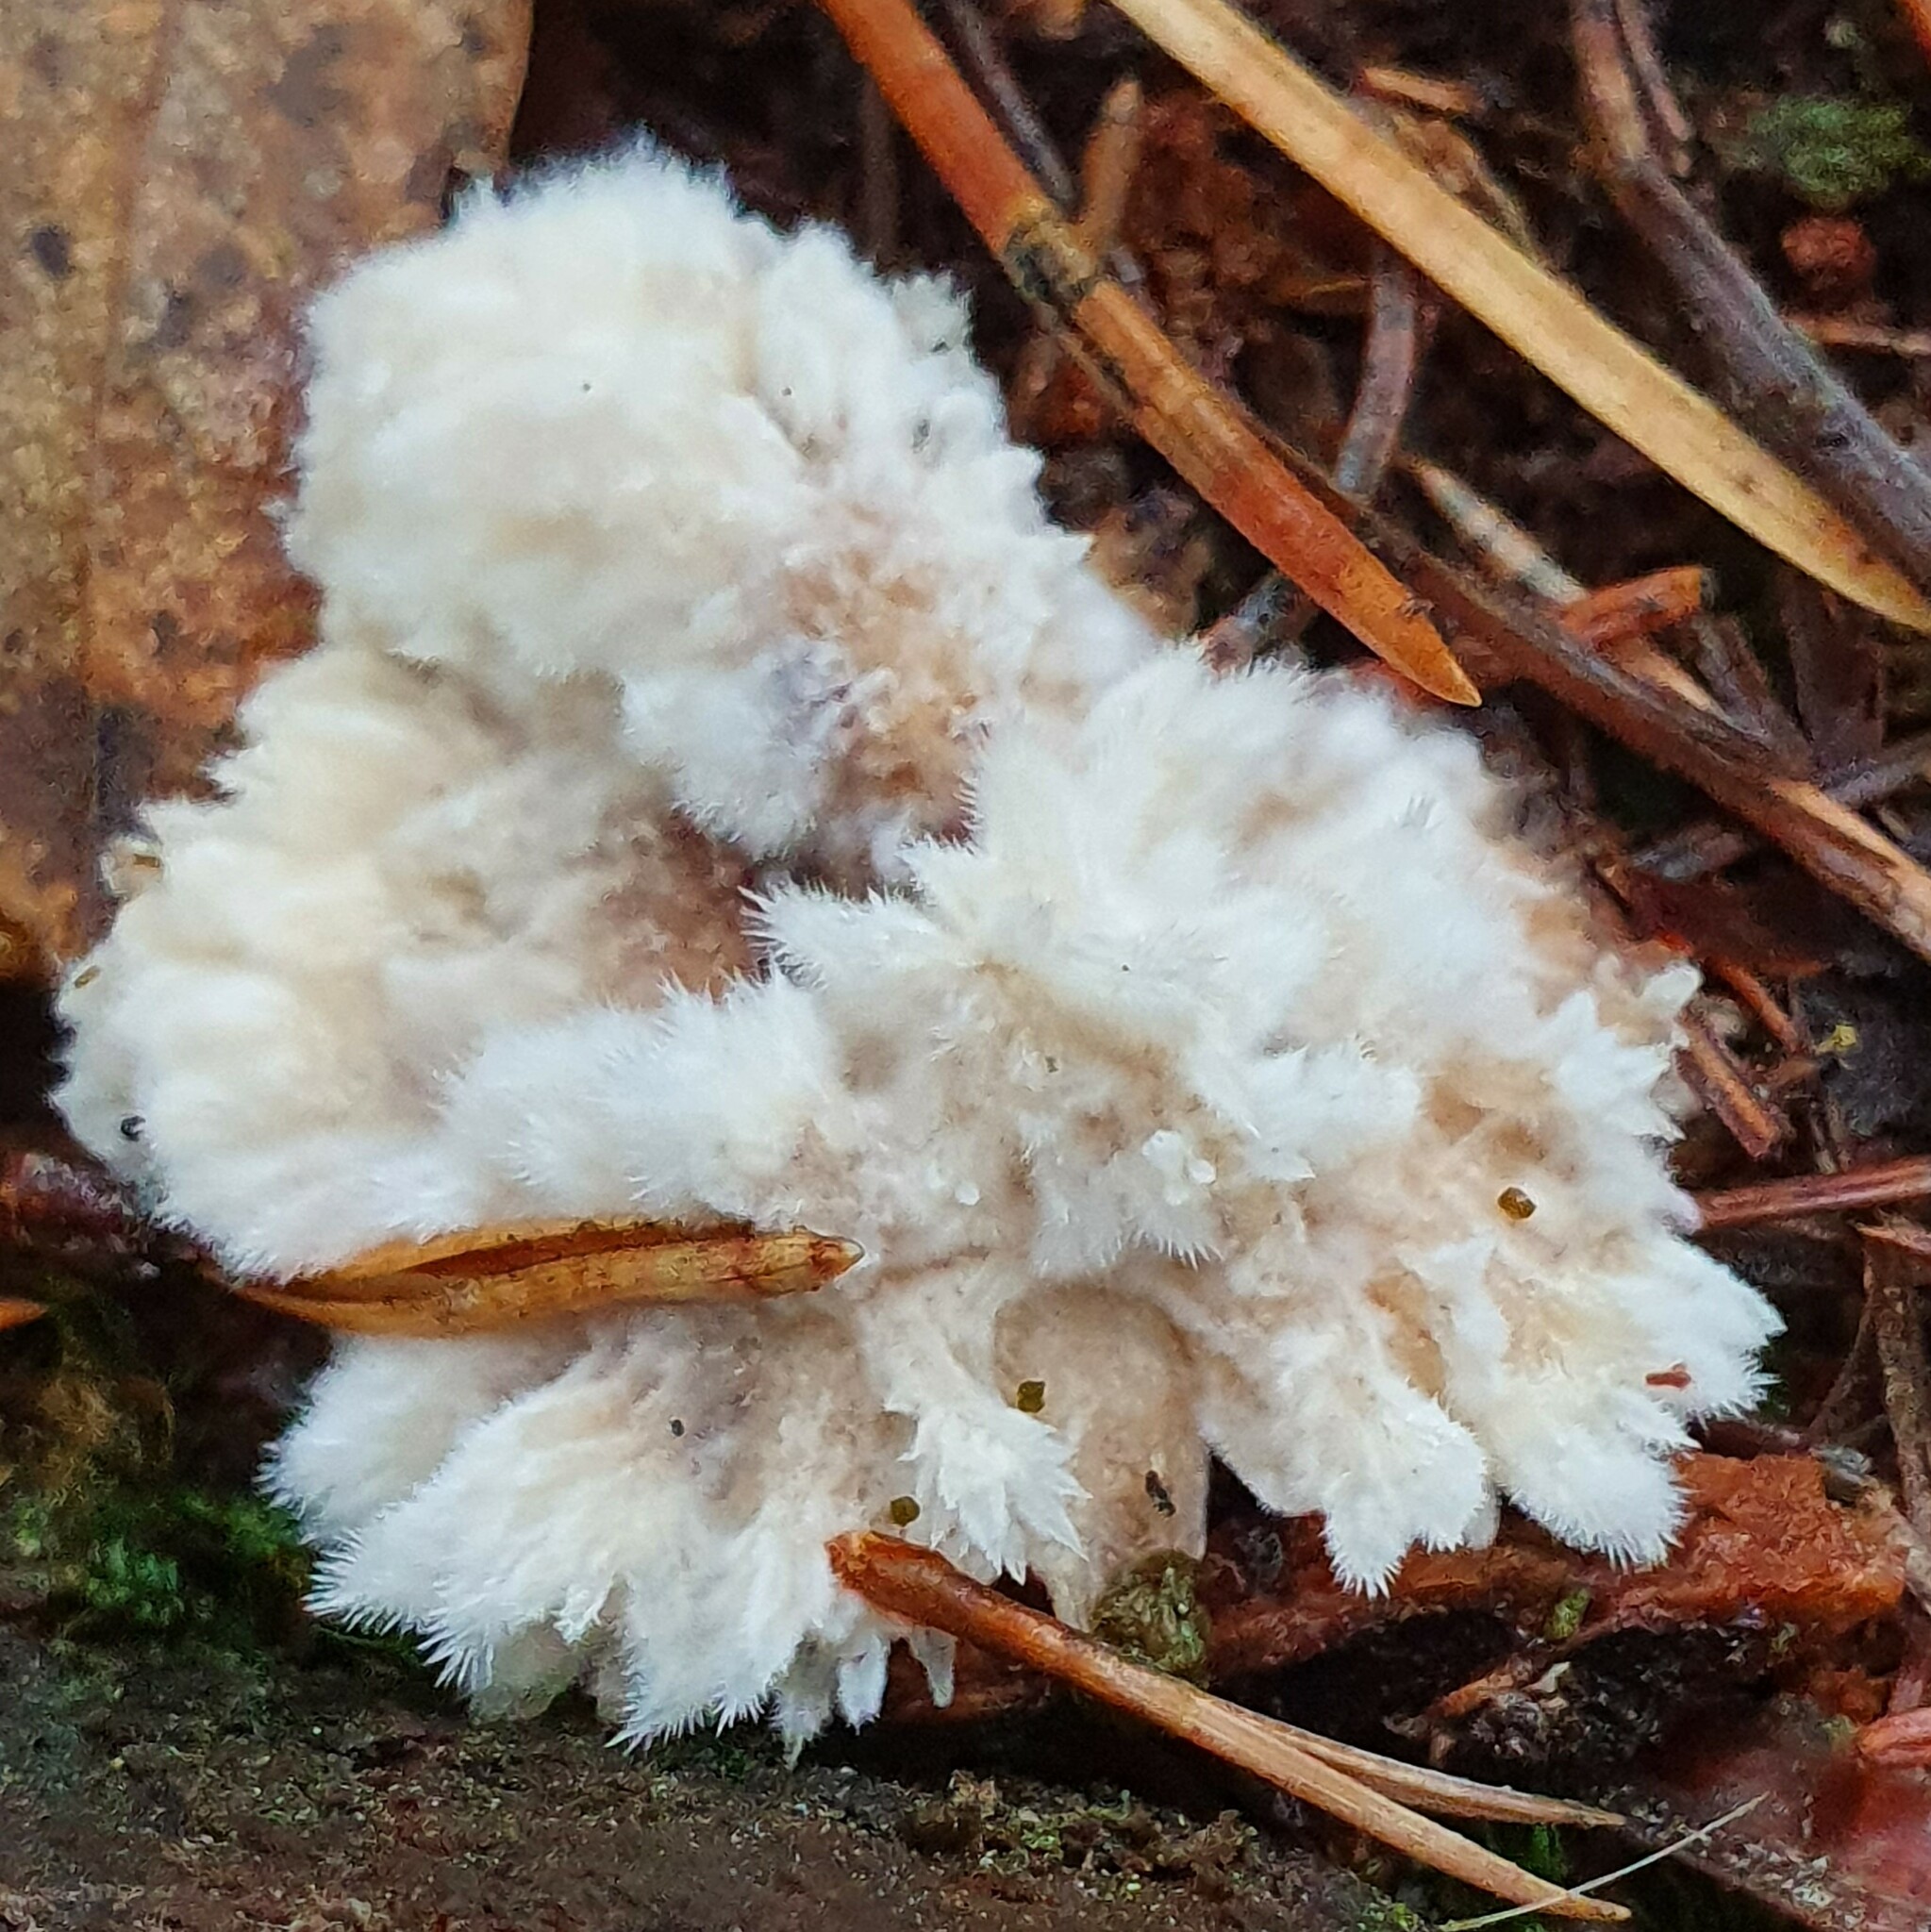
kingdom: Fungi
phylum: Basidiomycota
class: Agaricomycetes
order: Polyporales
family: Dacryobolaceae
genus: Postia
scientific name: Postia ptychogaster
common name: Powderpuff bracket
